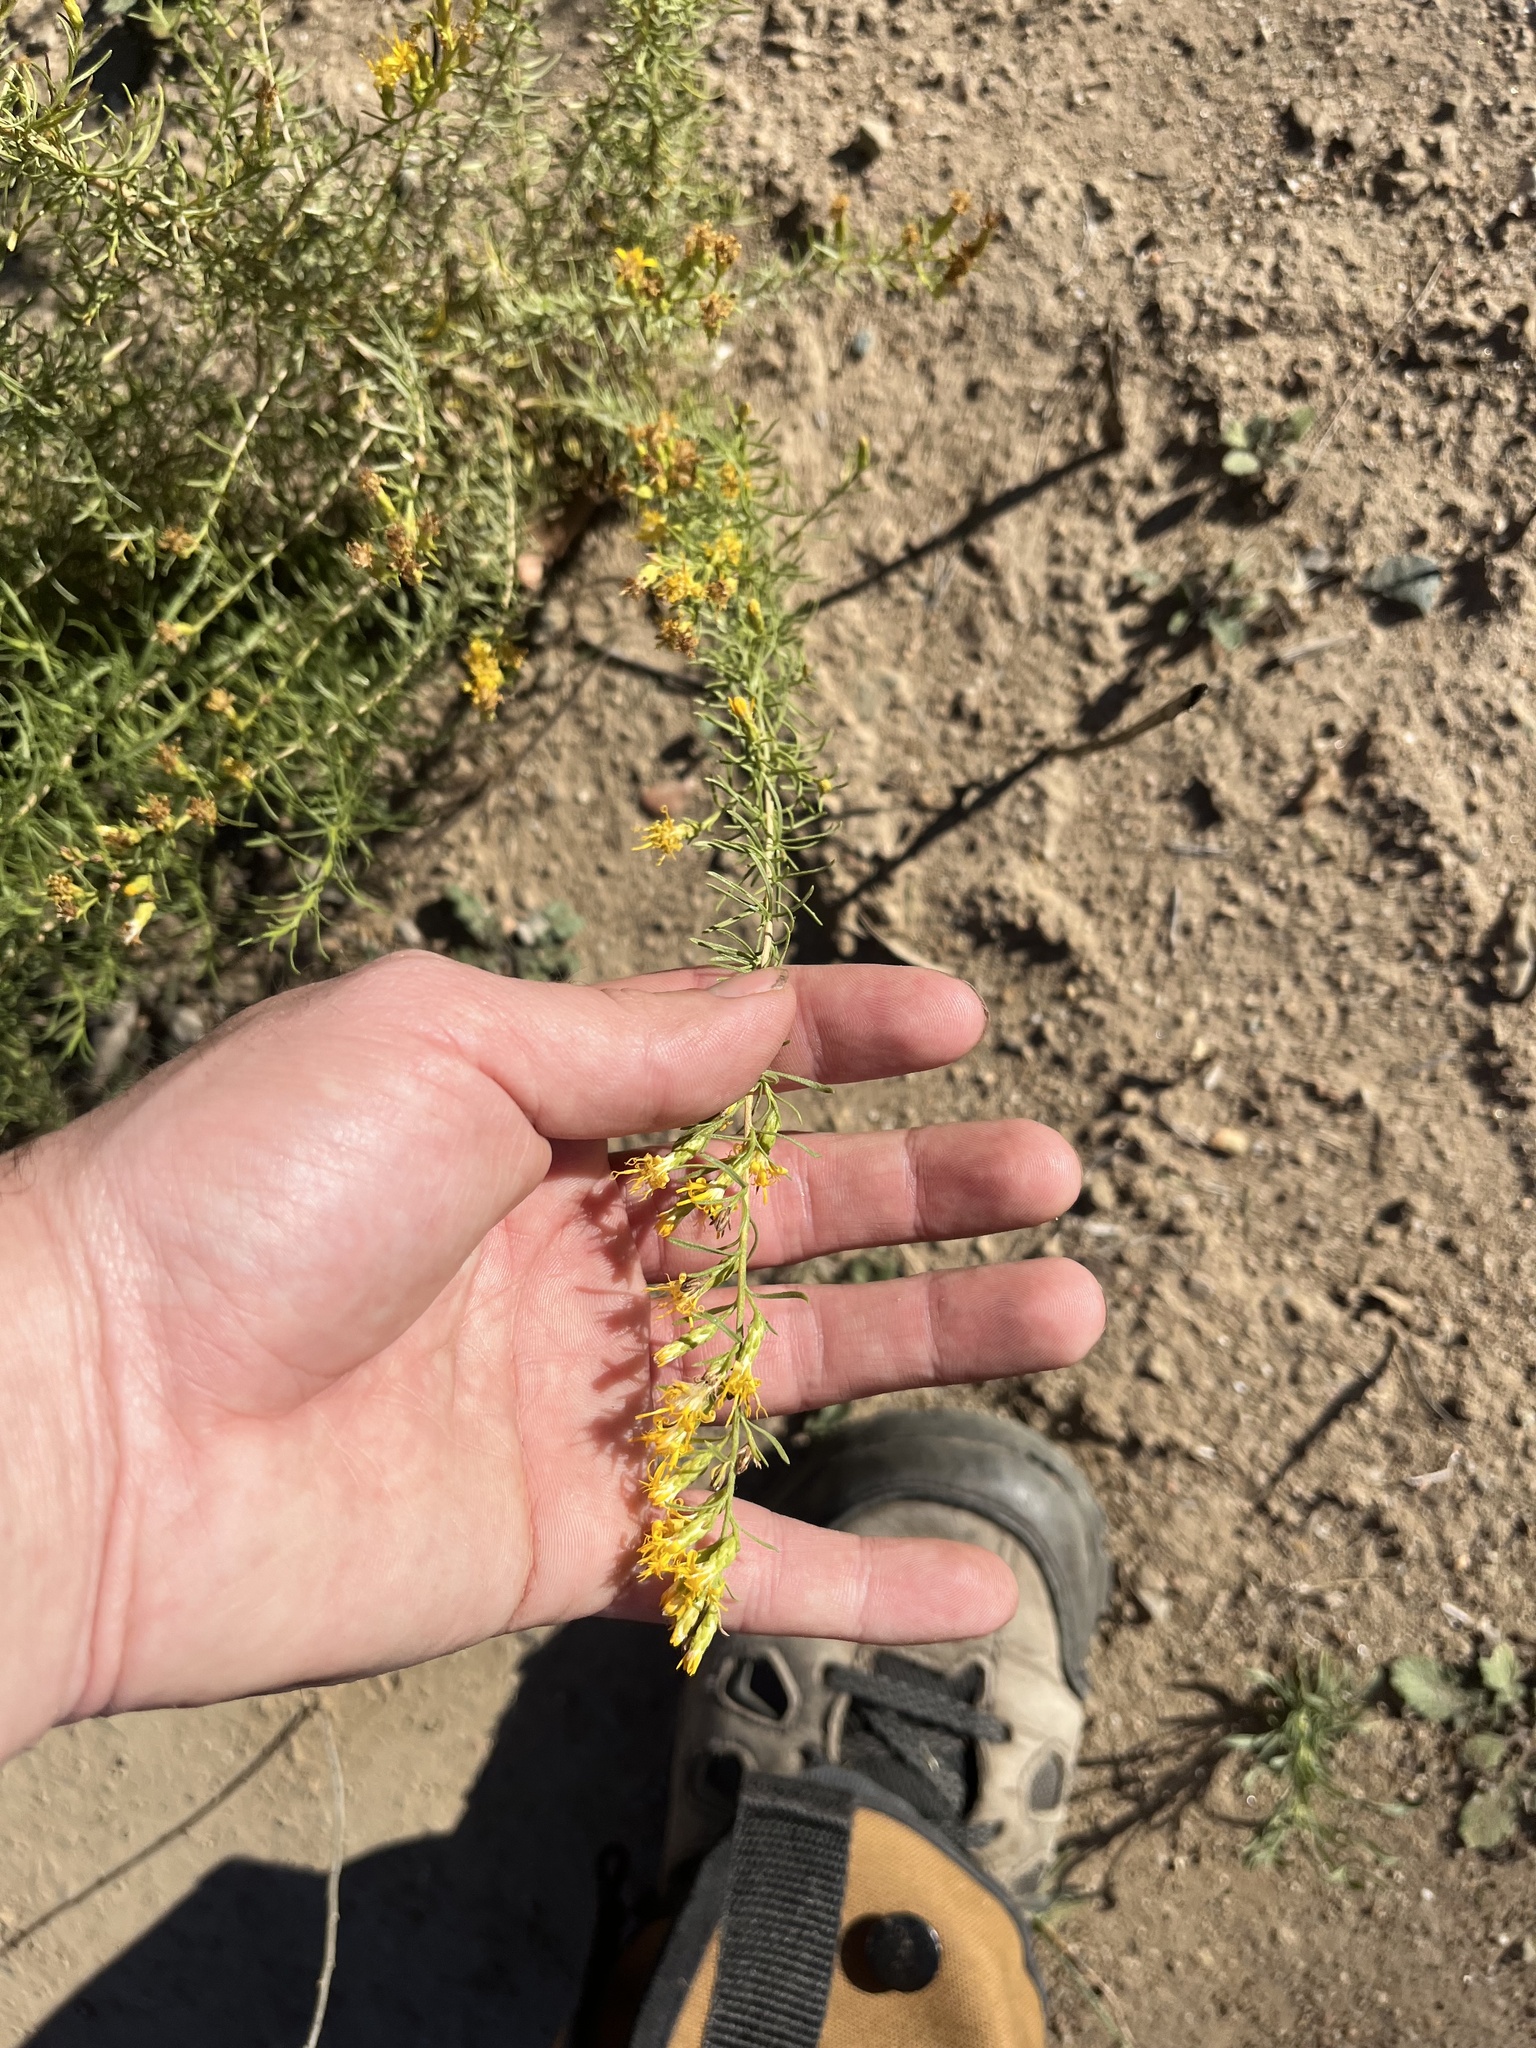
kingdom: Plantae
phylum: Tracheophyta
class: Magnoliopsida
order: Asterales
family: Asteraceae
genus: Ericameria
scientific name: Ericameria palmeri
